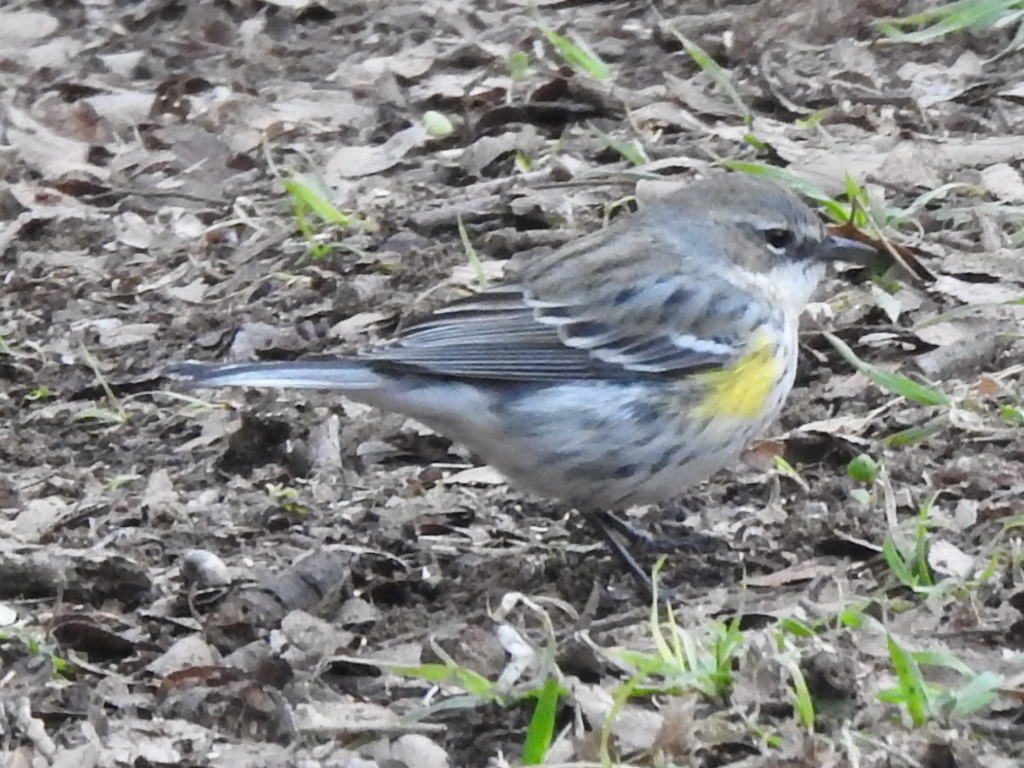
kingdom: Animalia
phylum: Chordata
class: Aves
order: Passeriformes
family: Parulidae
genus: Setophaga
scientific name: Setophaga coronata
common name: Myrtle warbler
